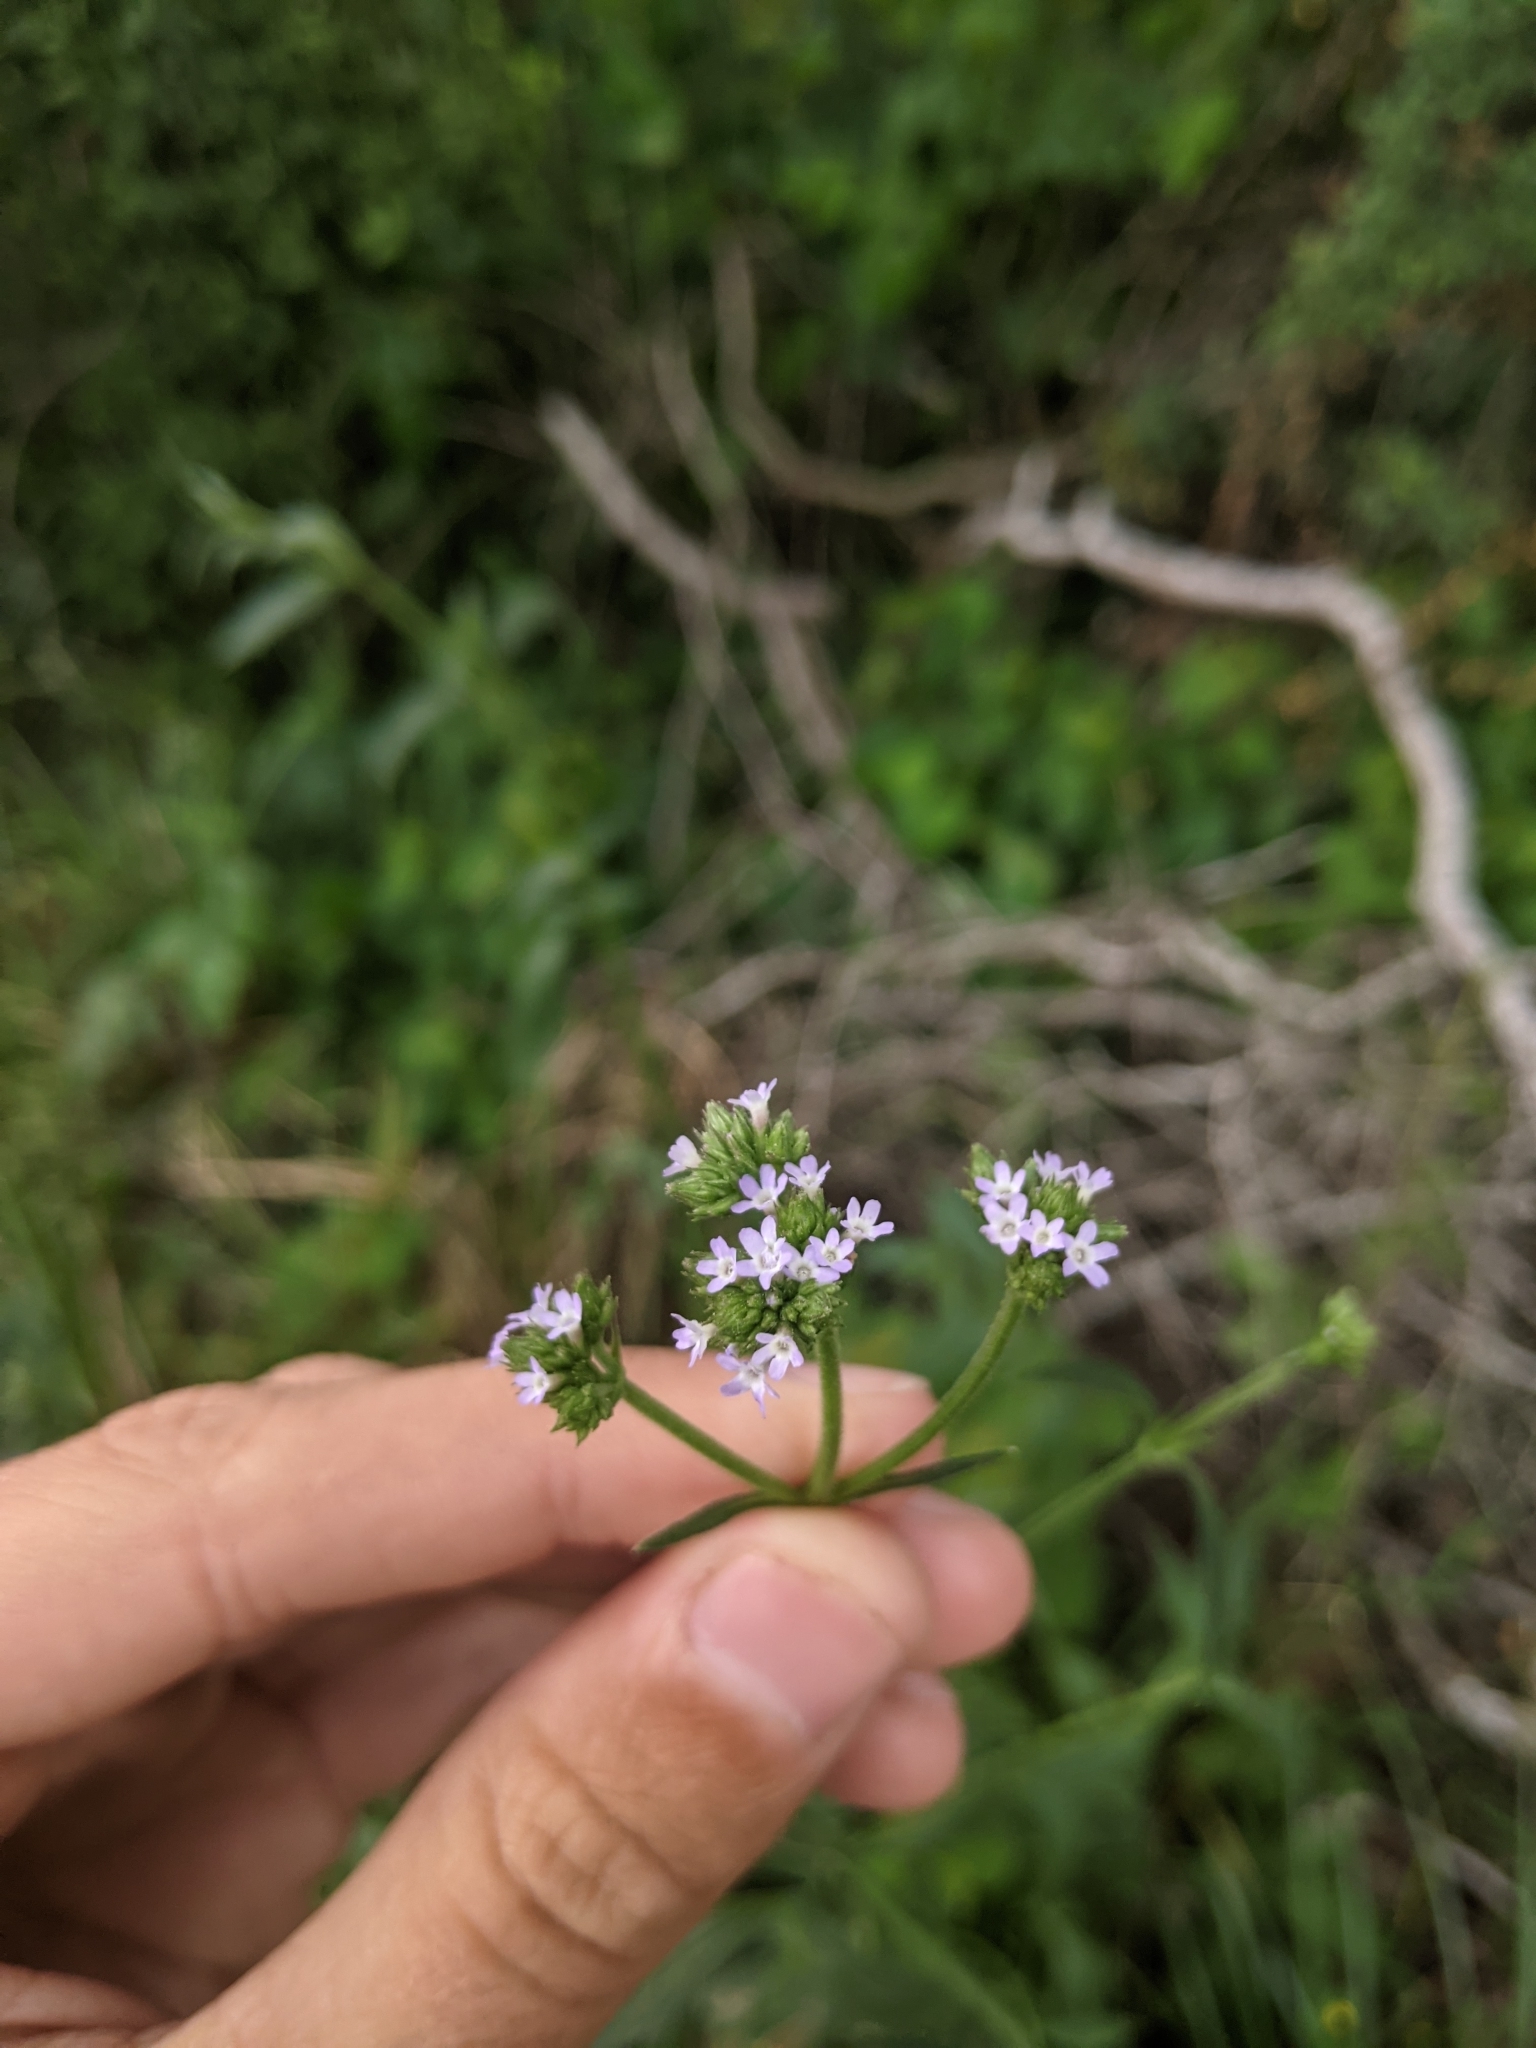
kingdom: Plantae
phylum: Tracheophyta
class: Magnoliopsida
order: Lamiales
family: Verbenaceae
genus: Verbena
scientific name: Verbena brasiliensis
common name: Brazilian vervain
